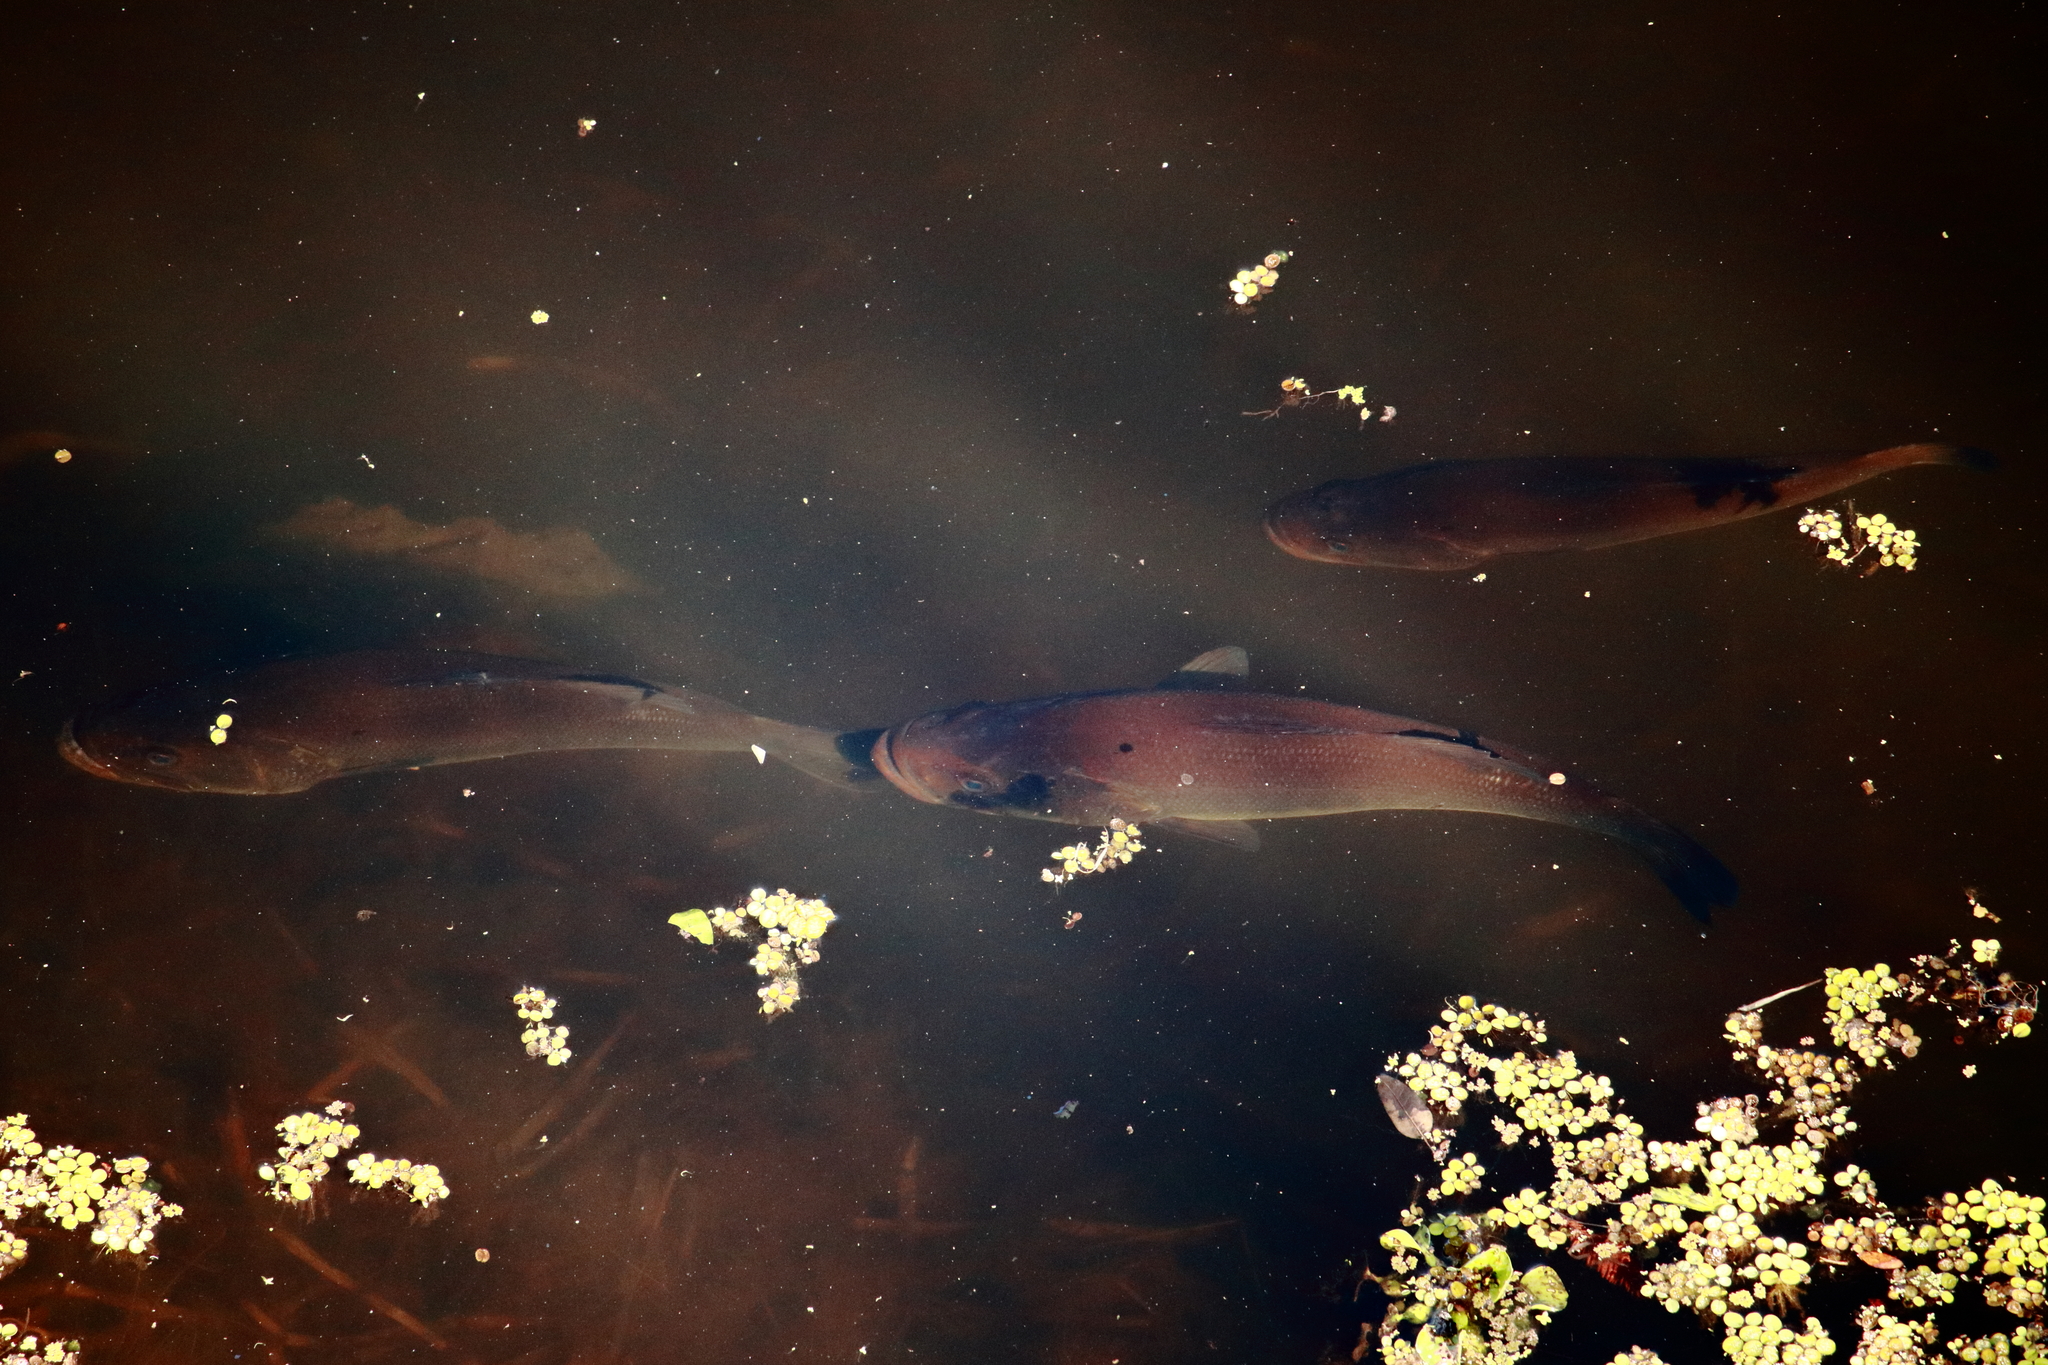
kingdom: Animalia
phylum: Chordata
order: Perciformes
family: Centrarchidae
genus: Micropterus
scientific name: Micropterus salmoides
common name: Largemouth bass
